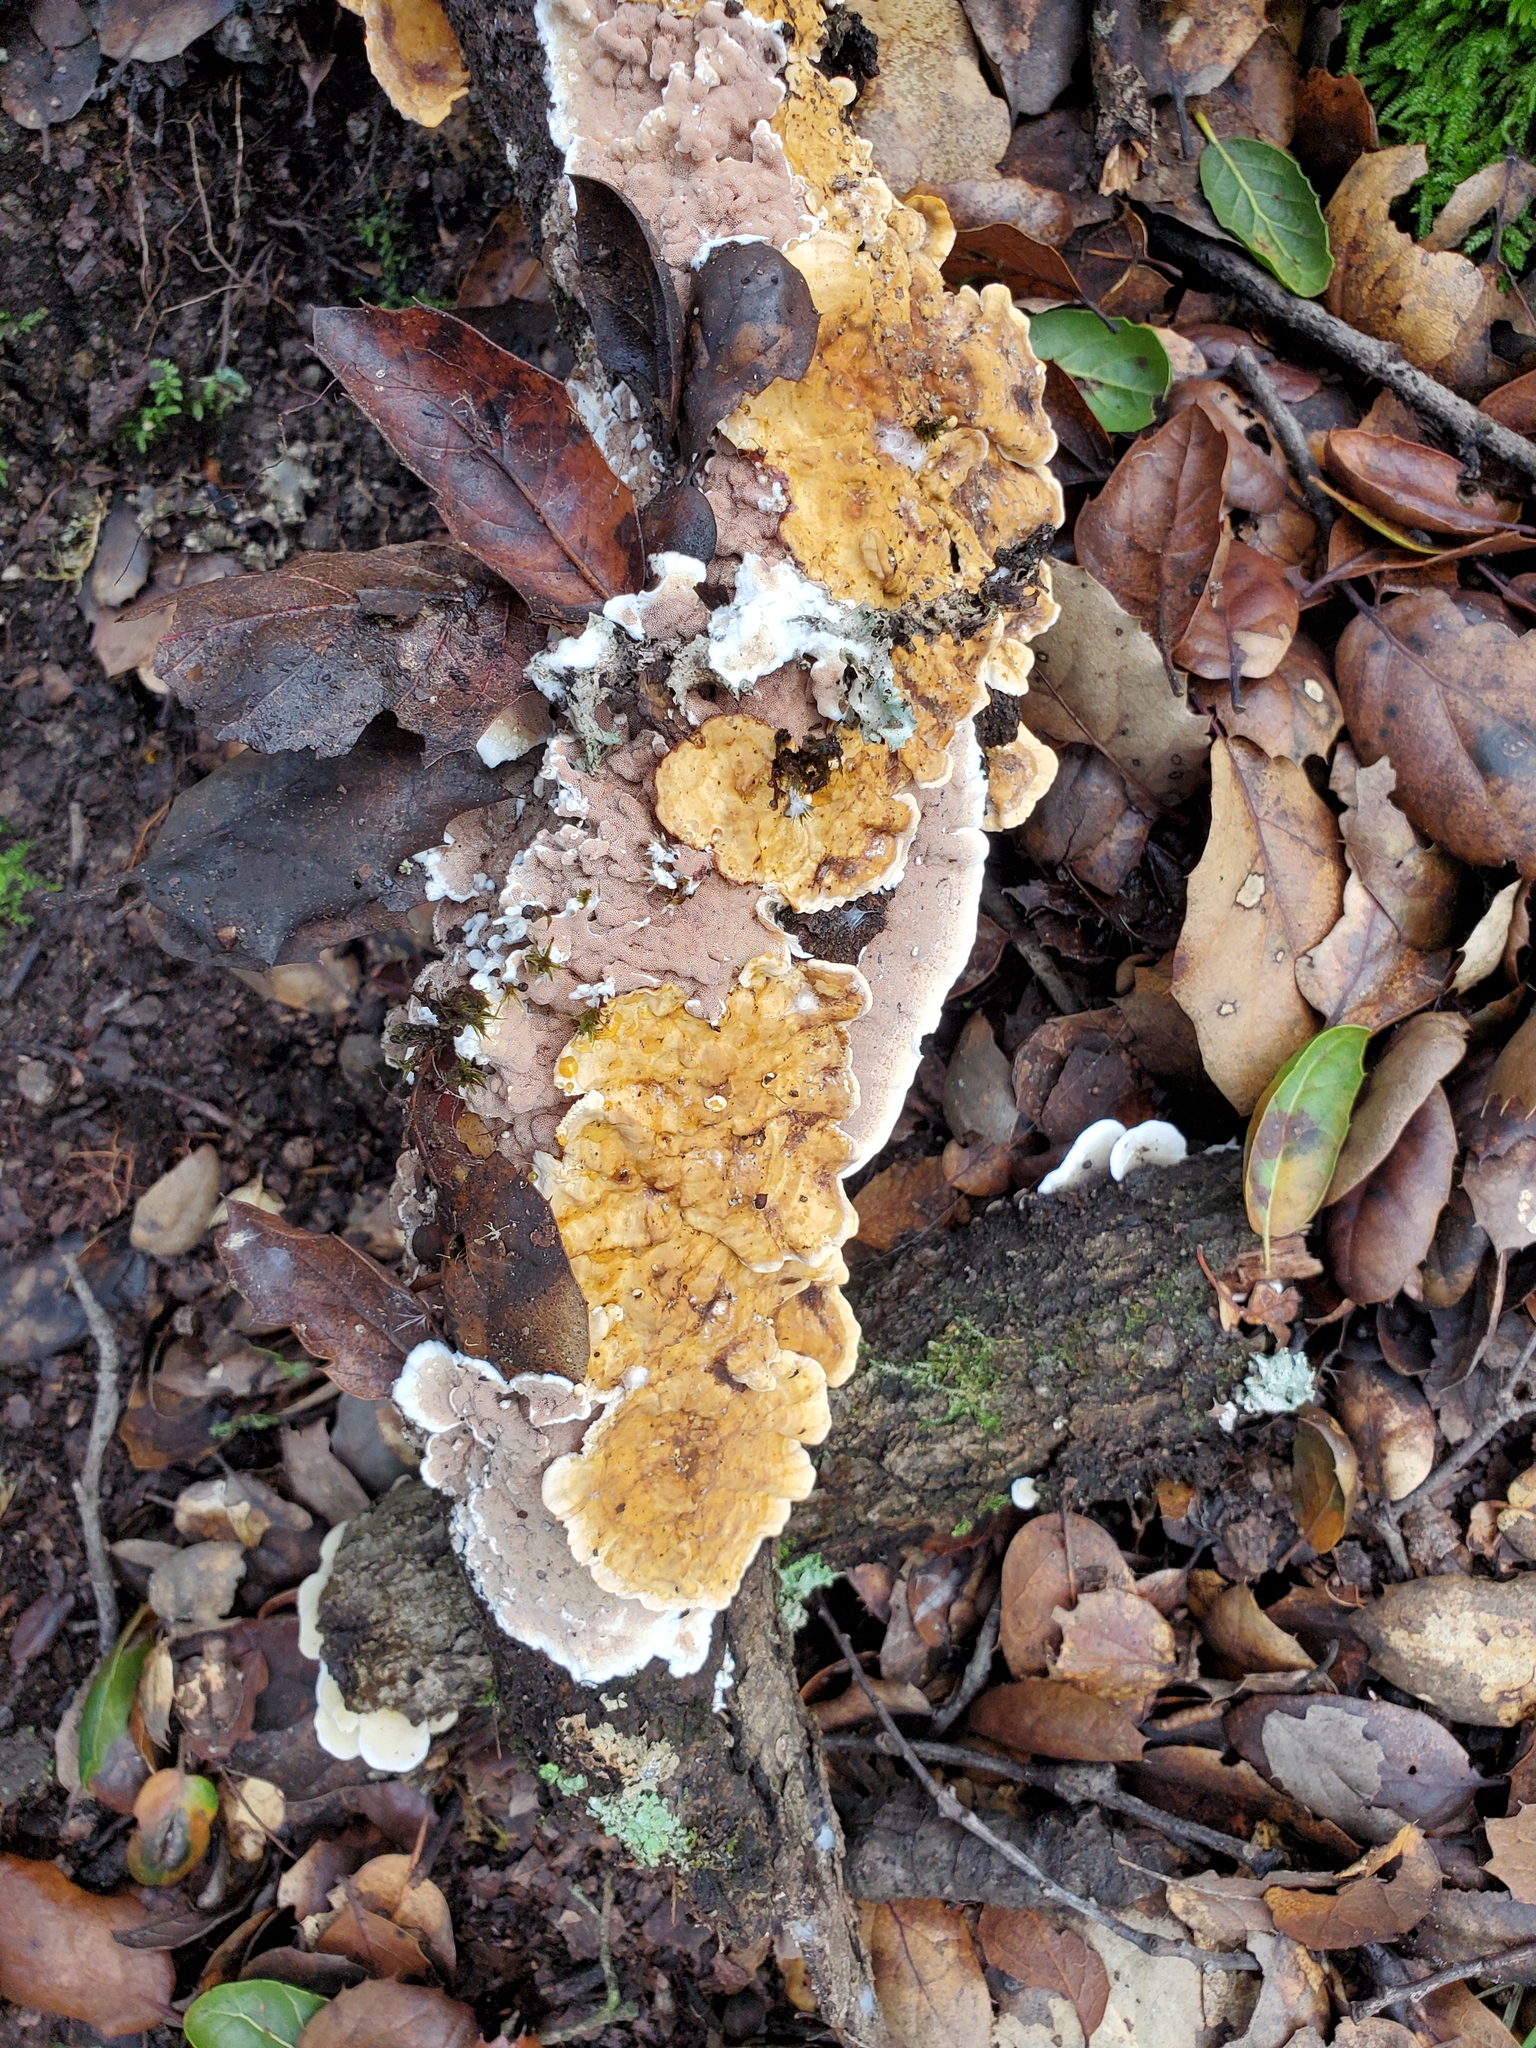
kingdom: Fungi
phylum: Basidiomycota
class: Agaricomycetes
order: Polyporales
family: Irpicaceae
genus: Vitreoporus
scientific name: Vitreoporus dichrous
